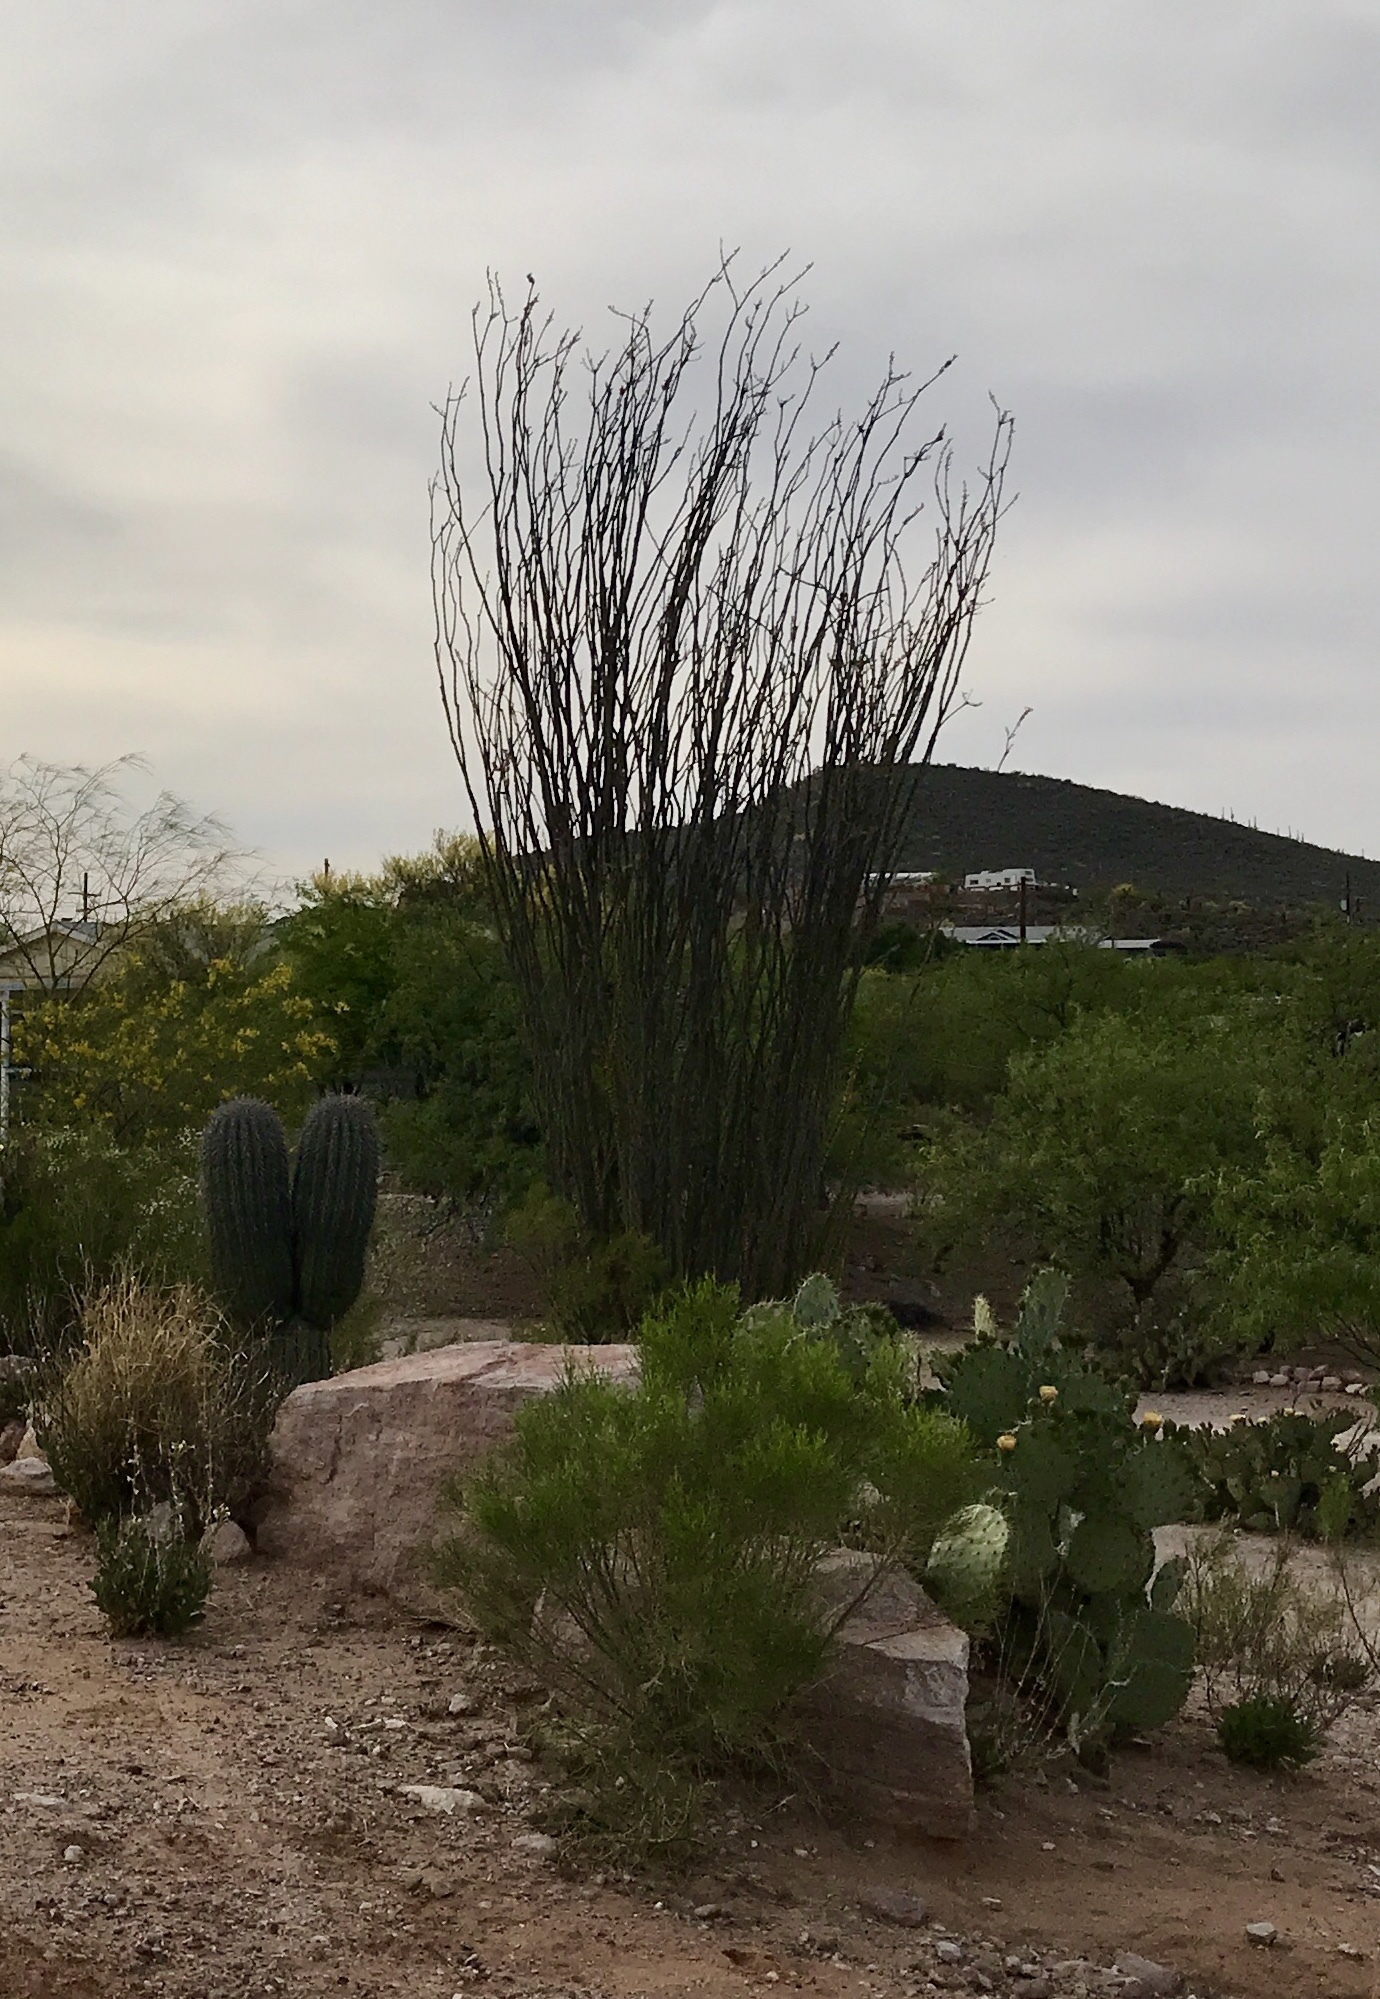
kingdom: Plantae
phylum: Tracheophyta
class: Magnoliopsida
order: Ericales
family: Fouquieriaceae
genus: Fouquieria
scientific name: Fouquieria splendens
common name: Vine-cactus
